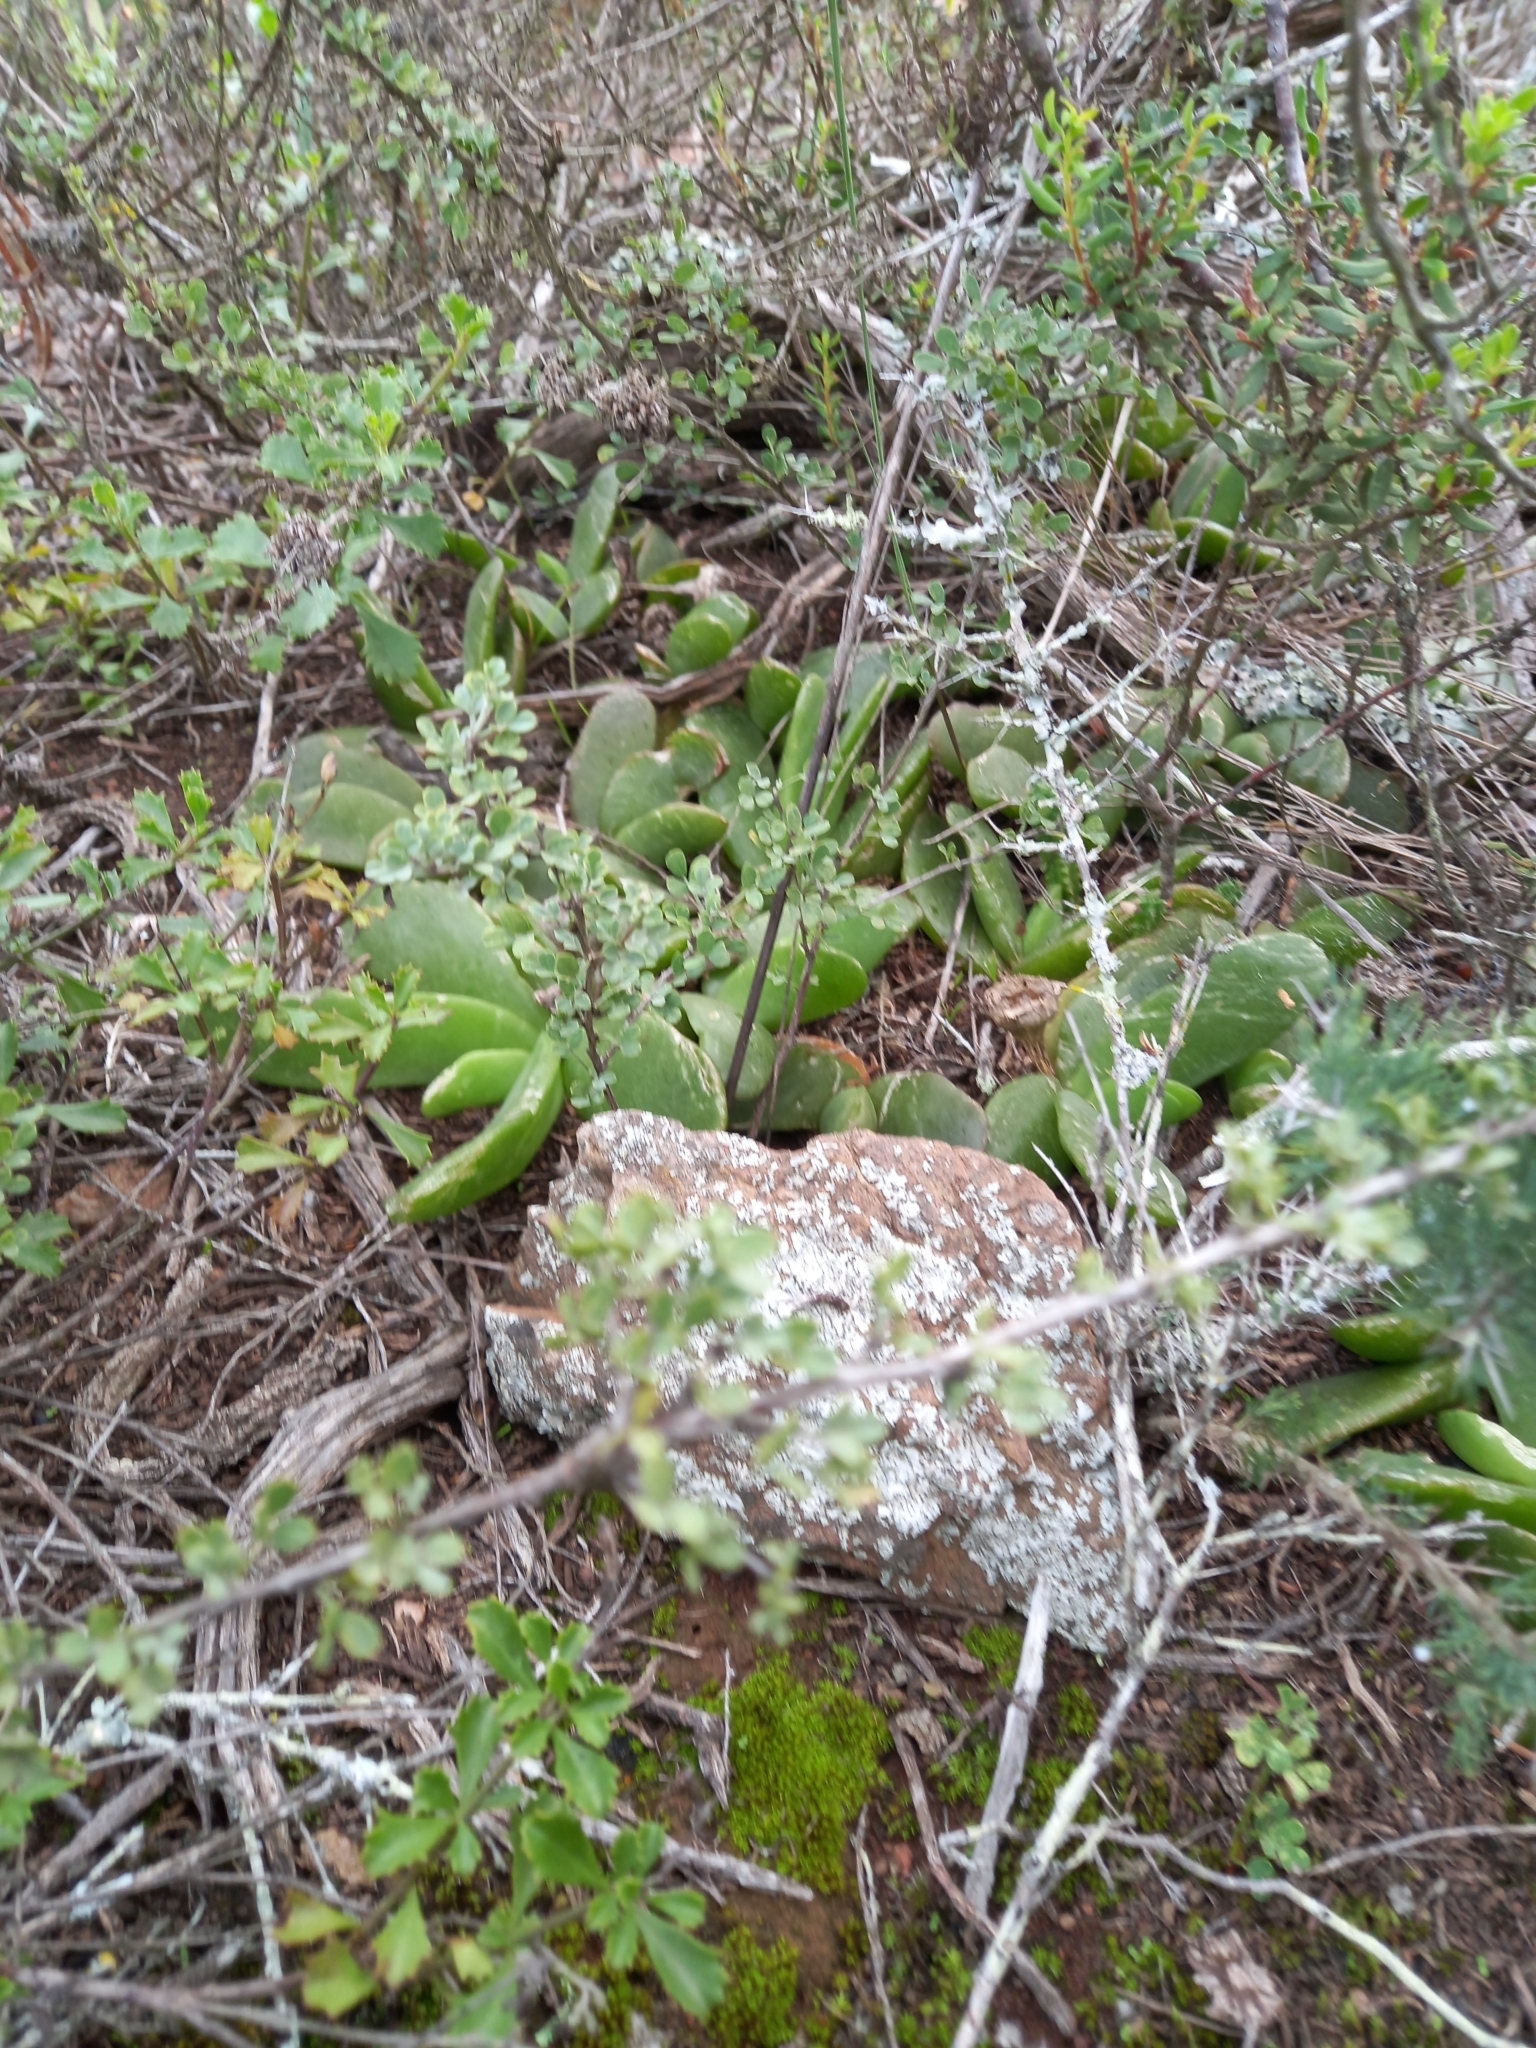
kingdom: Plantae
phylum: Tracheophyta
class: Magnoliopsida
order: Caryophyllales
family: Aizoaceae
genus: Glottiphyllum
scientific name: Glottiphyllum longum
